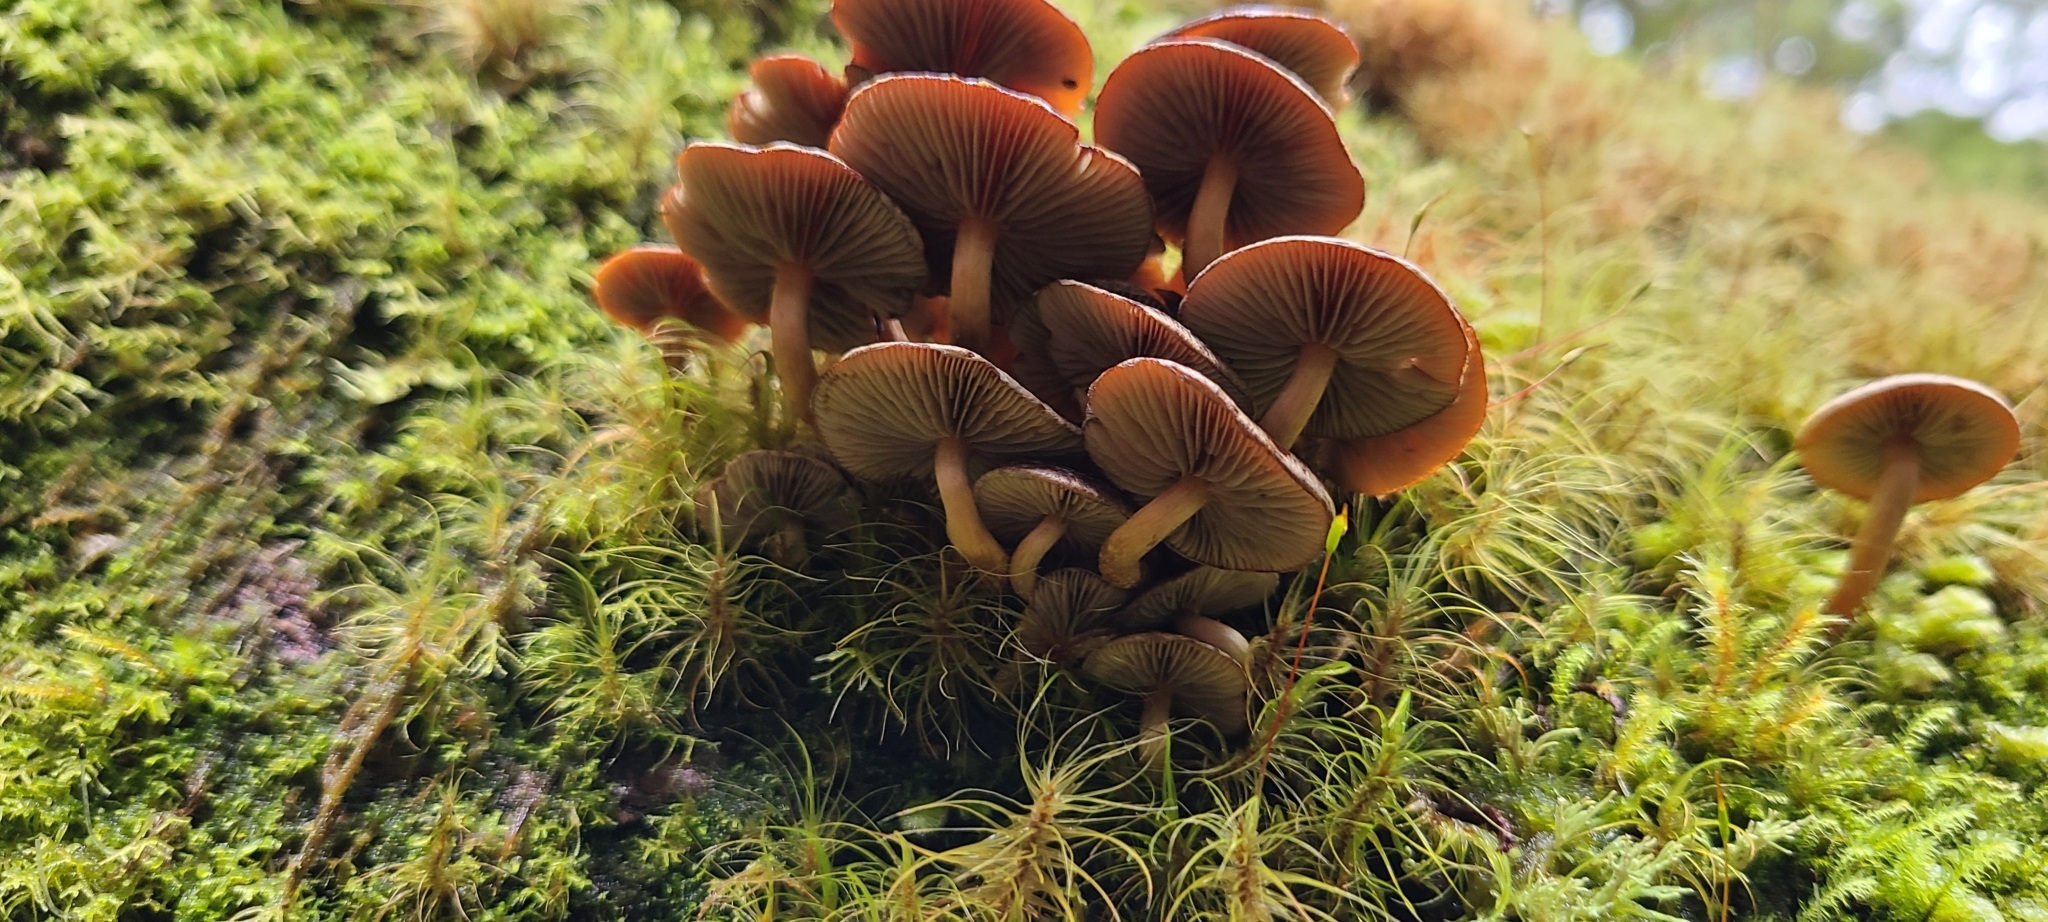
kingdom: Fungi
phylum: Basidiomycota
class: Agaricomycetes
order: Agaricales
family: Strophariaceae
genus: Hypholoma
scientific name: Hypholoma brunneum
